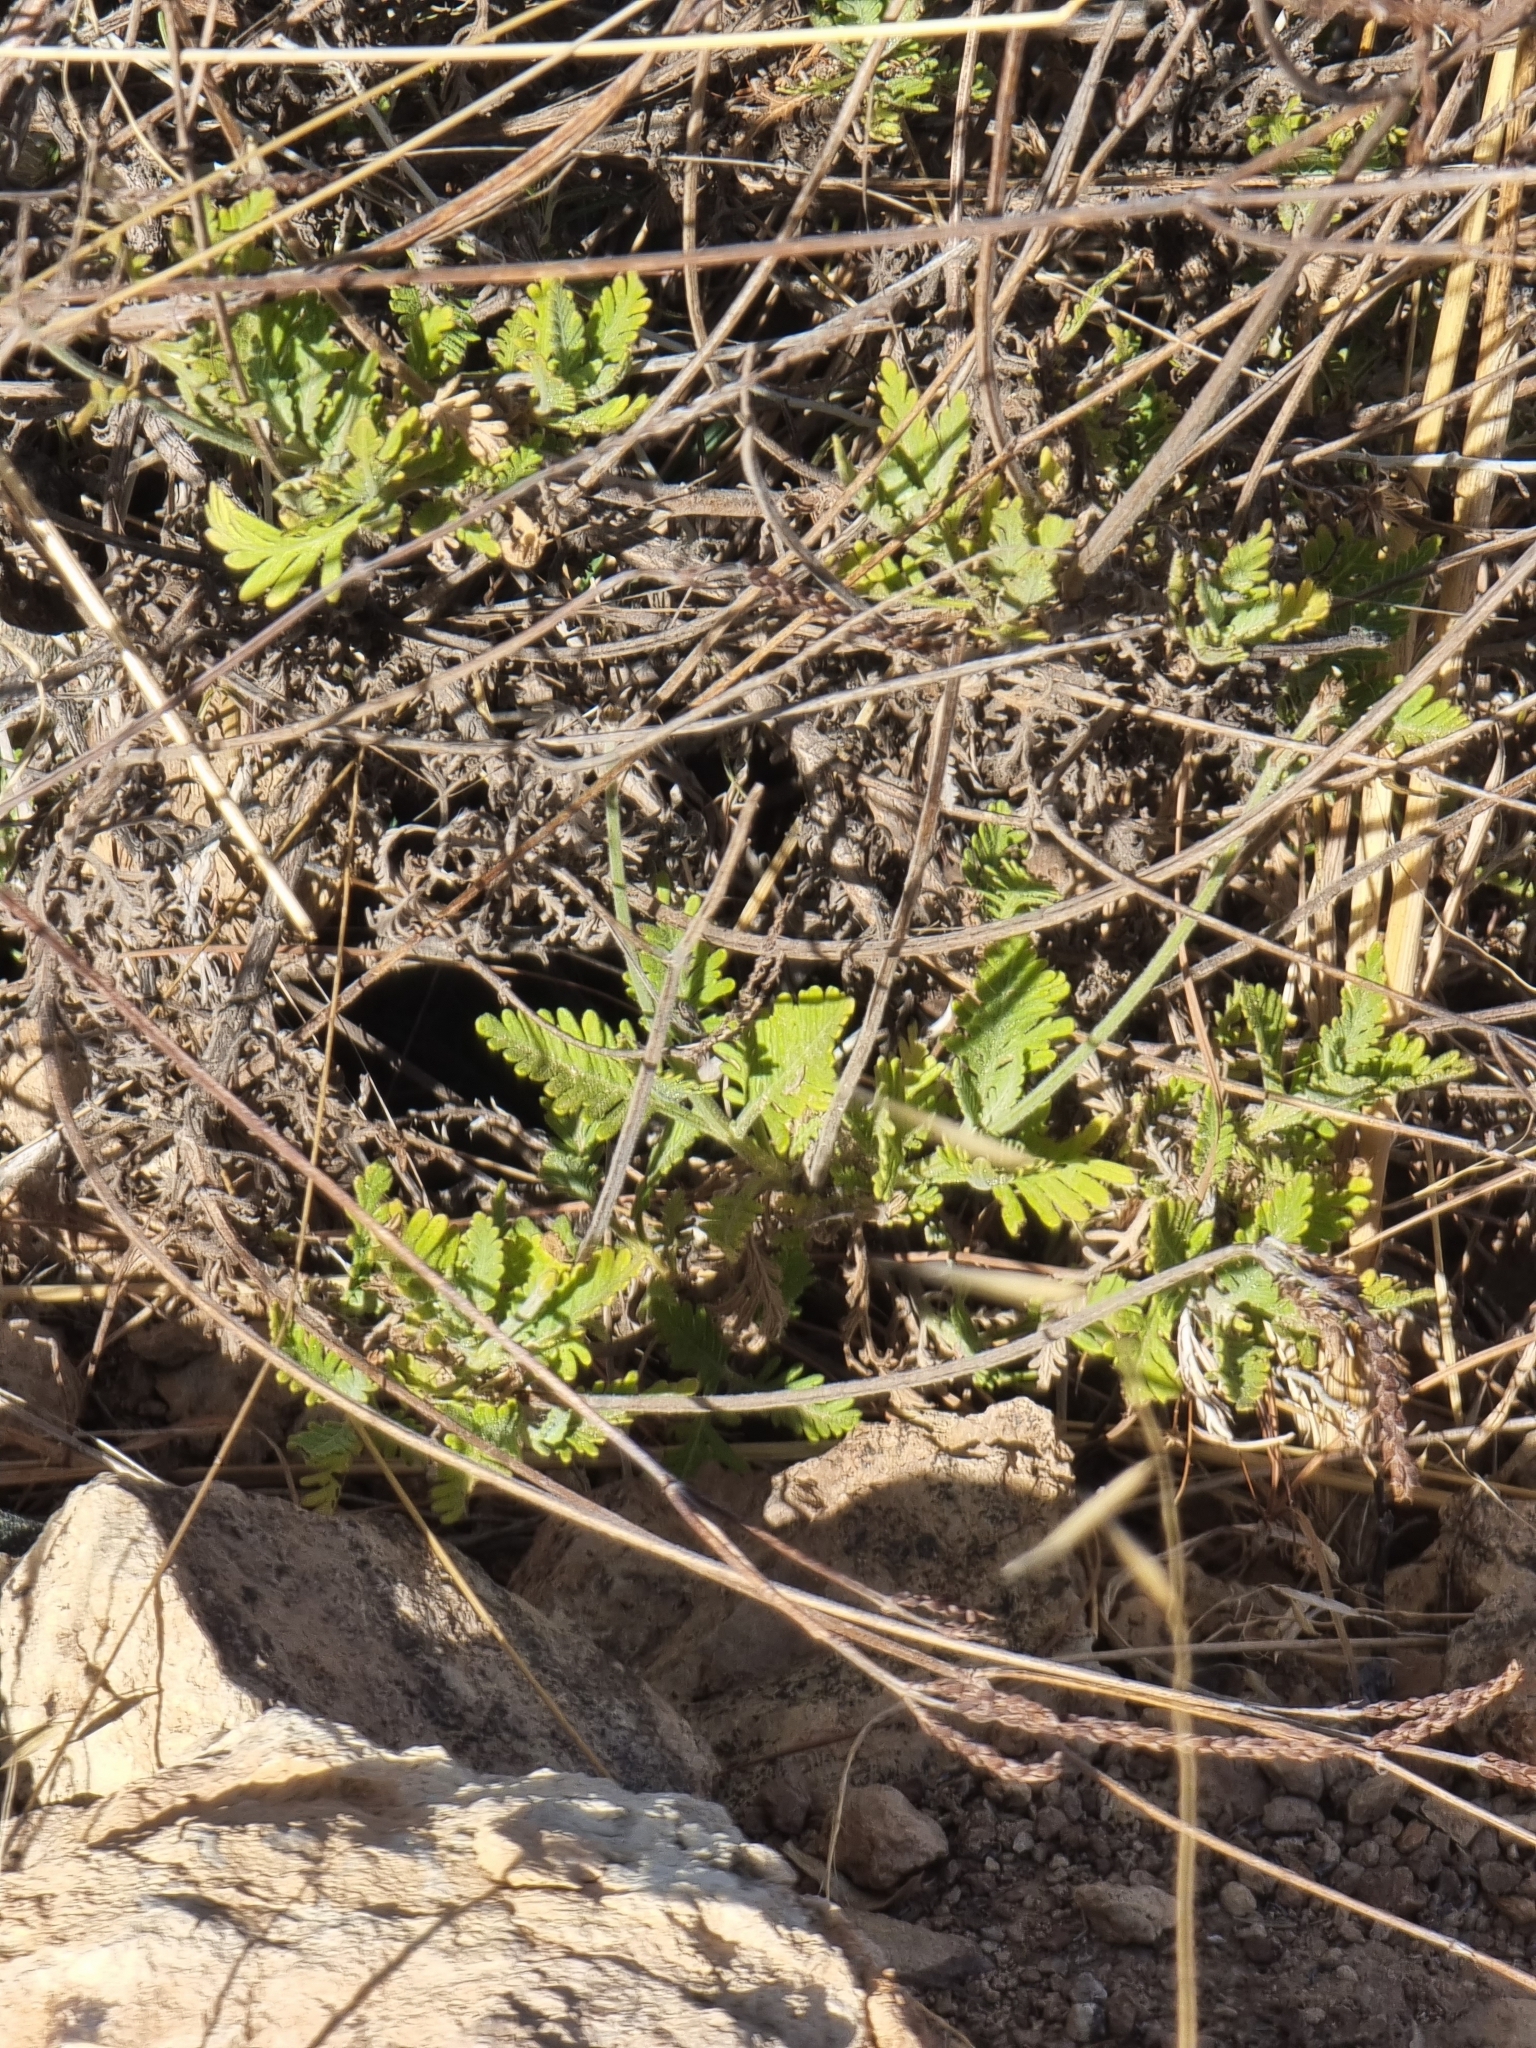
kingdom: Plantae
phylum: Tracheophyta
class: Magnoliopsida
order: Lamiales
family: Lamiaceae
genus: Lavandula
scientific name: Lavandula minutolii
